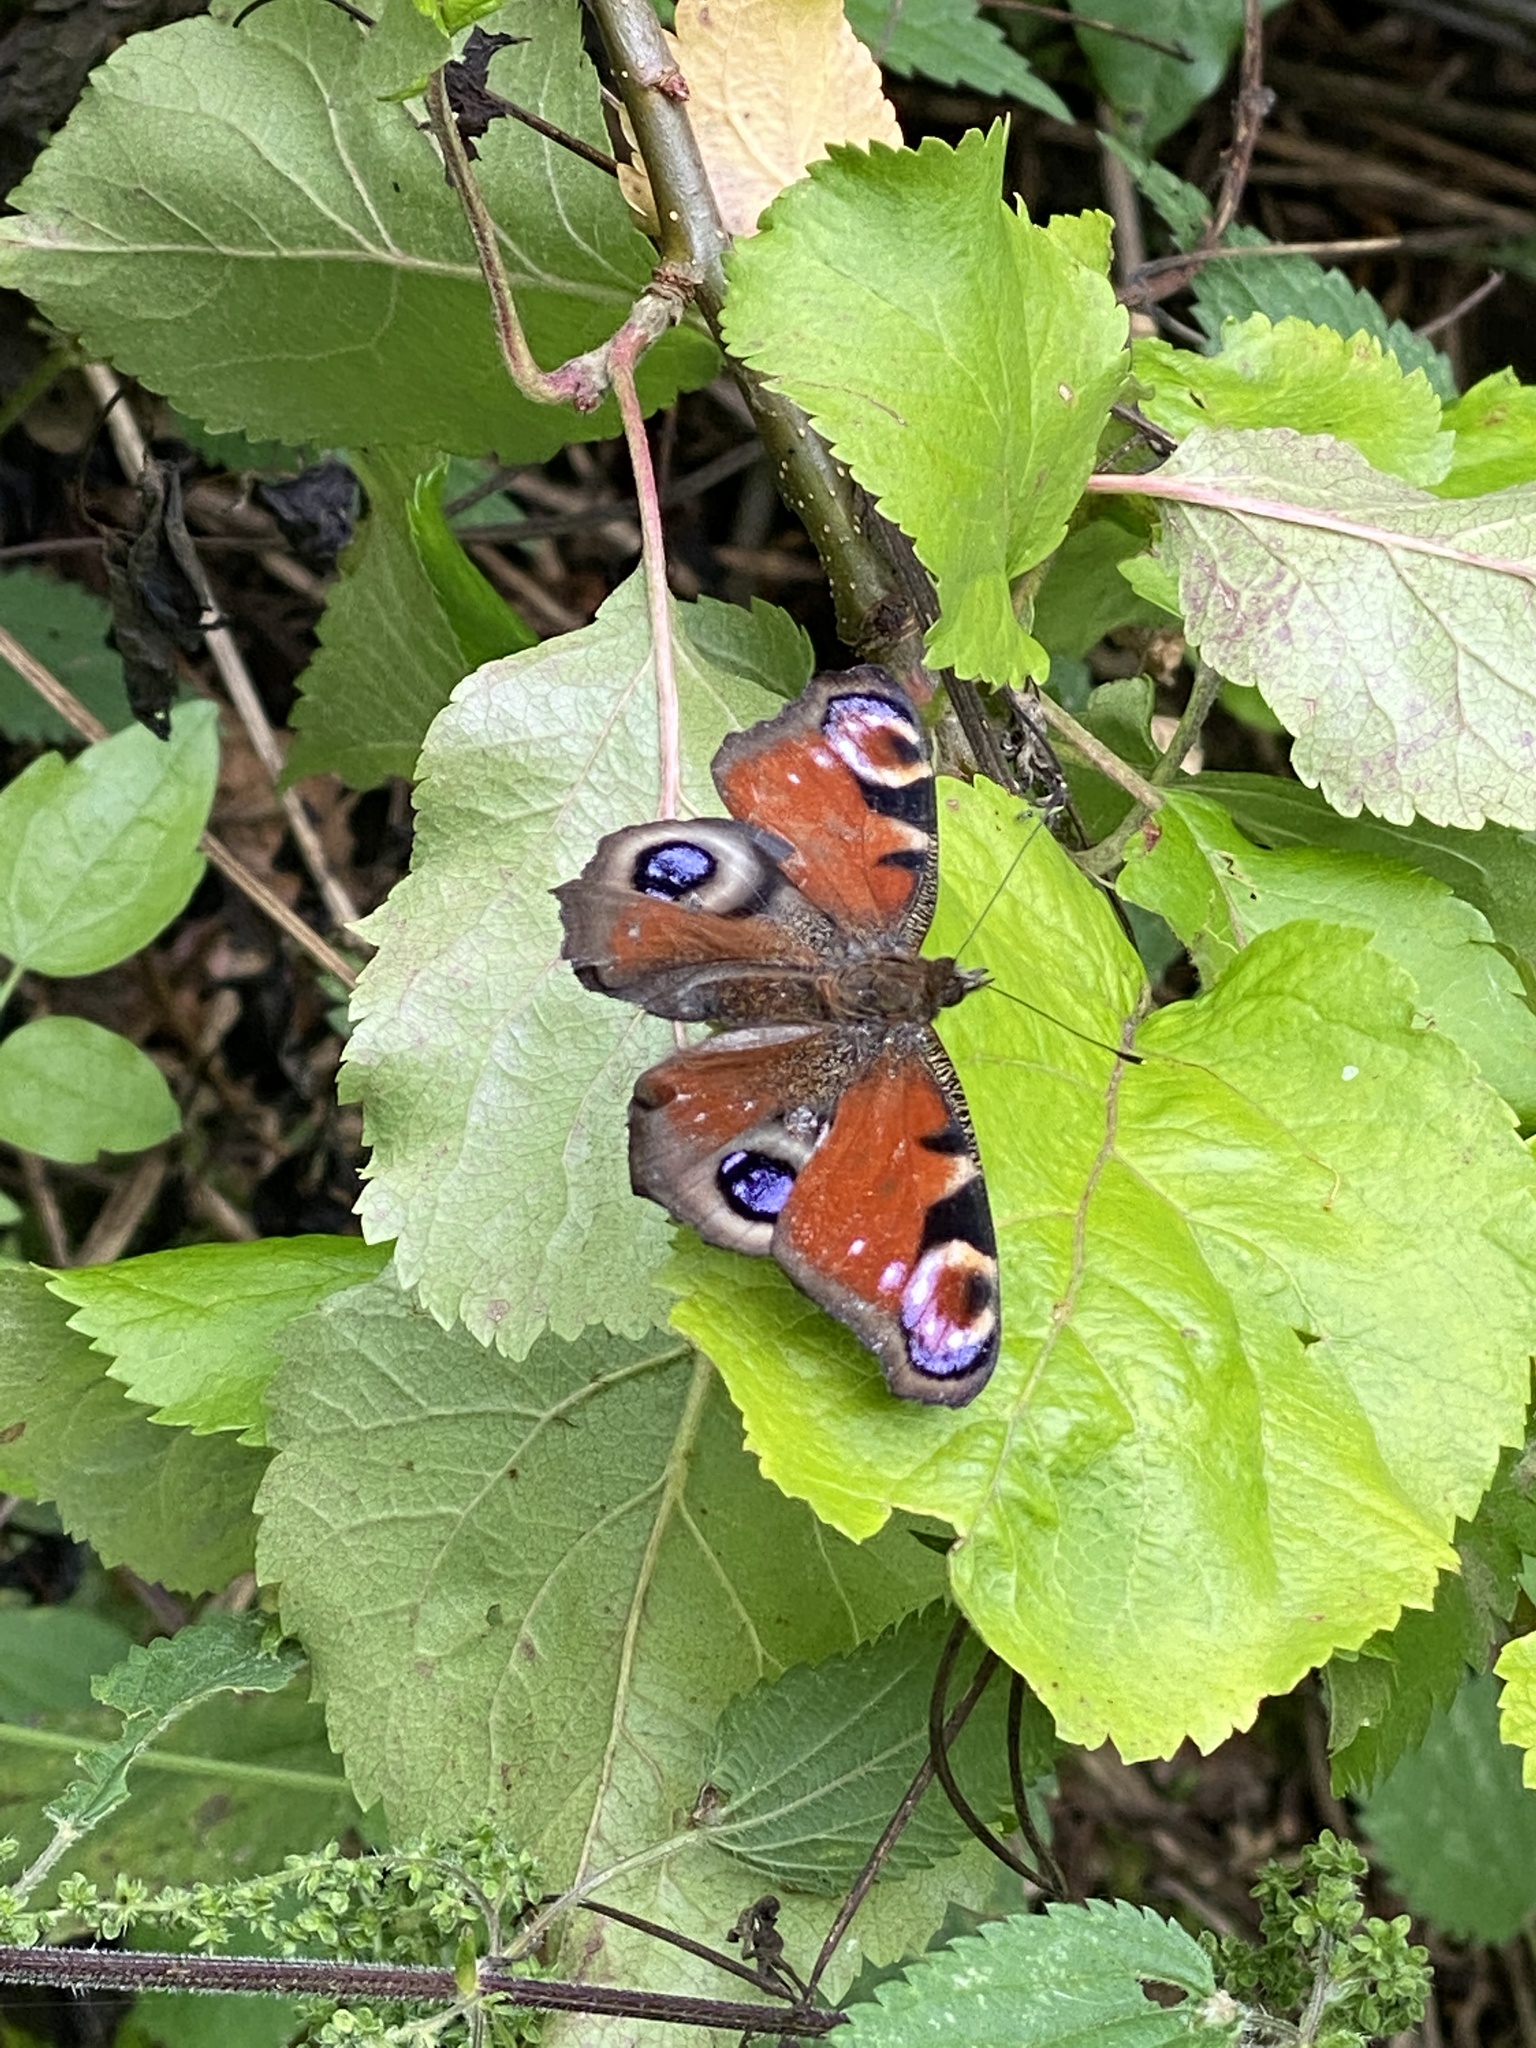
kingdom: Animalia
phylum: Arthropoda
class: Insecta
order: Lepidoptera
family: Nymphalidae
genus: Aglais
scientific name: Aglais io
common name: Peacock
